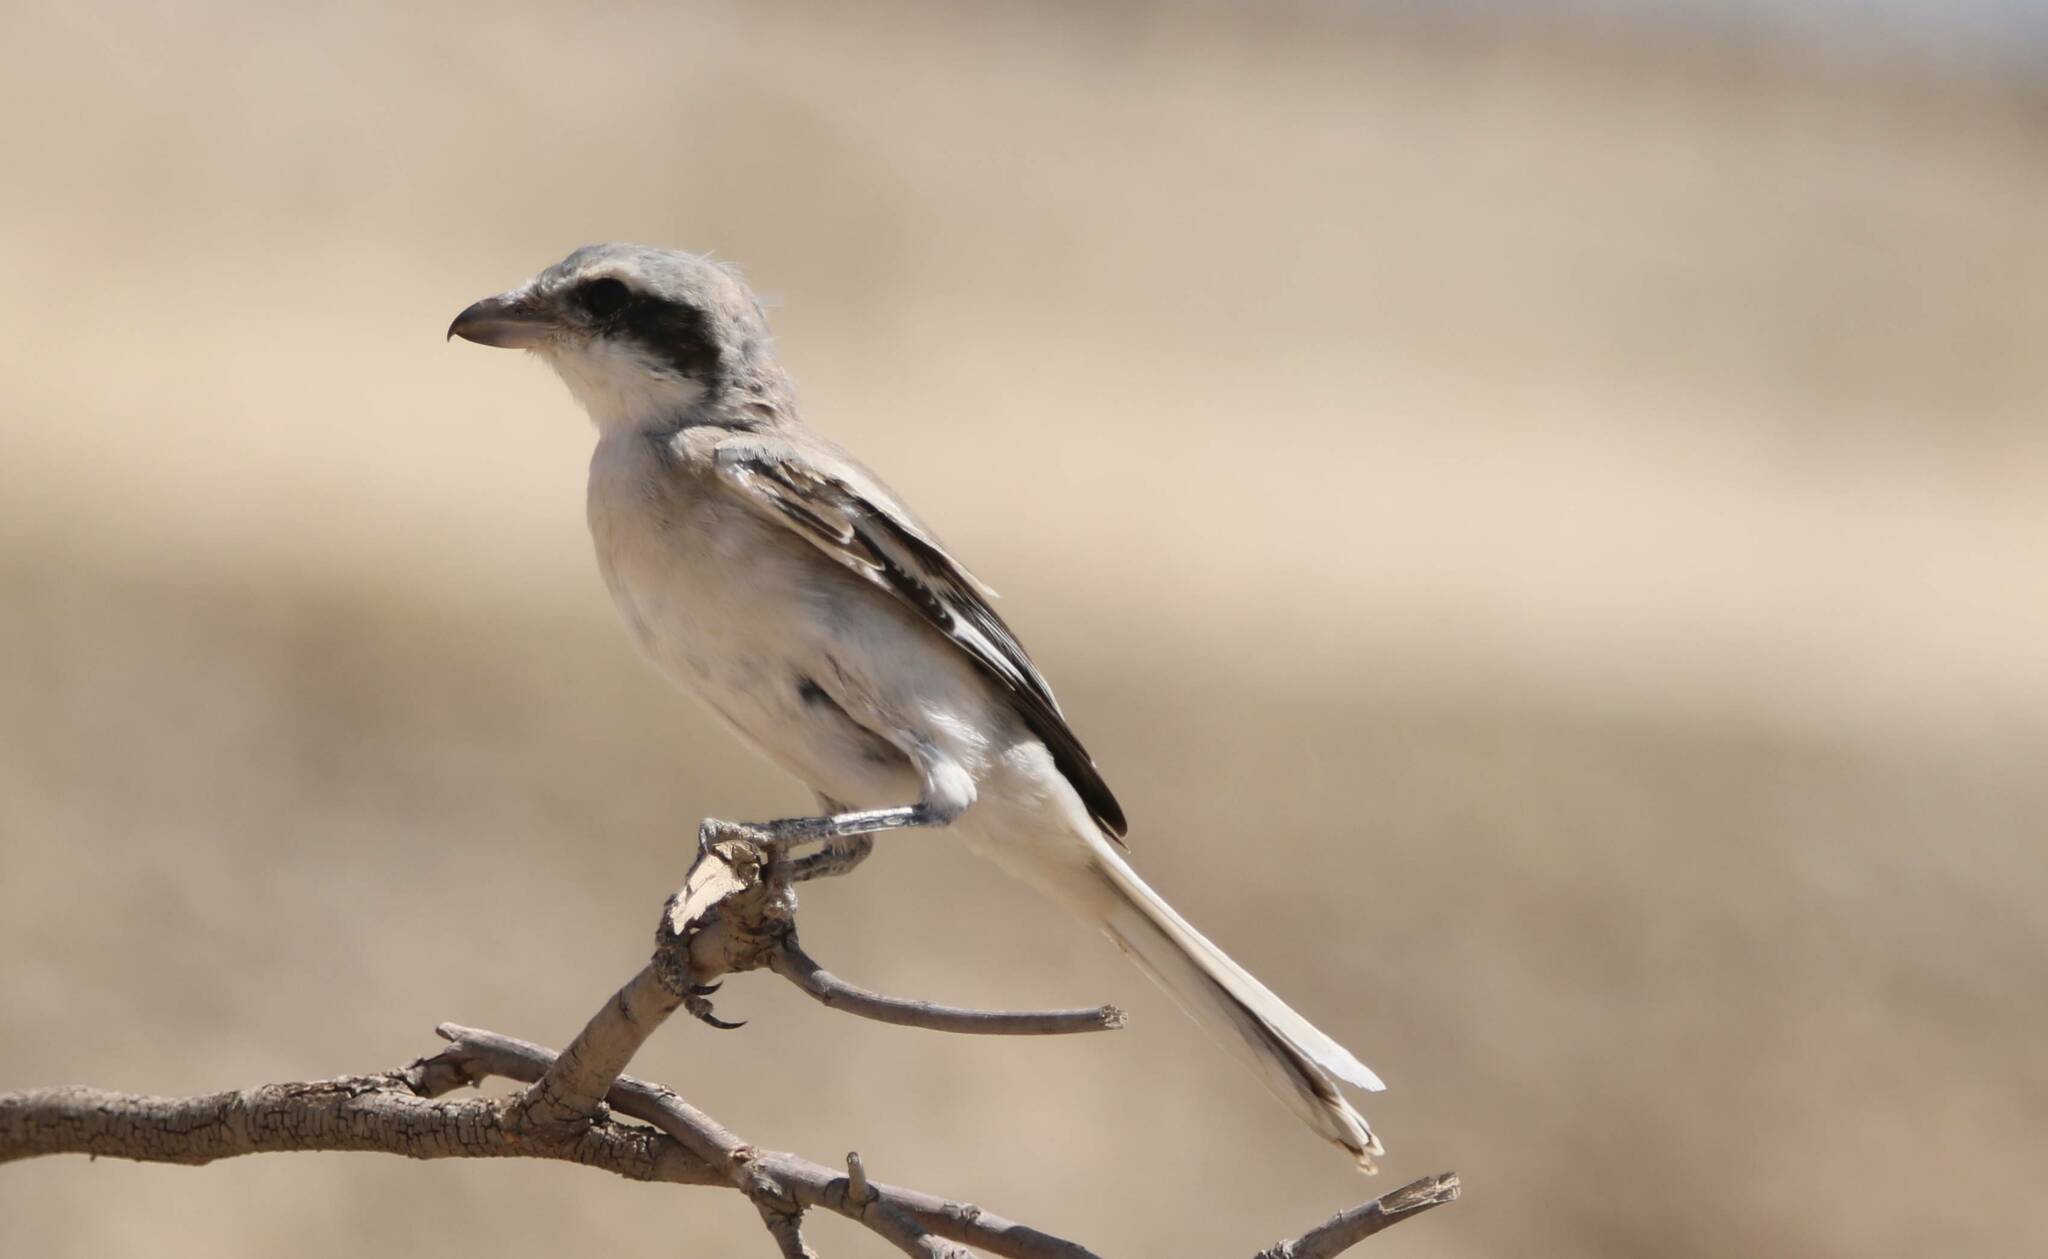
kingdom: Animalia
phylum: Chordata
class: Aves
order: Passeriformes
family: Laniidae
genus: Lanius
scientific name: Lanius excubitor
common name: Great grey shrike
